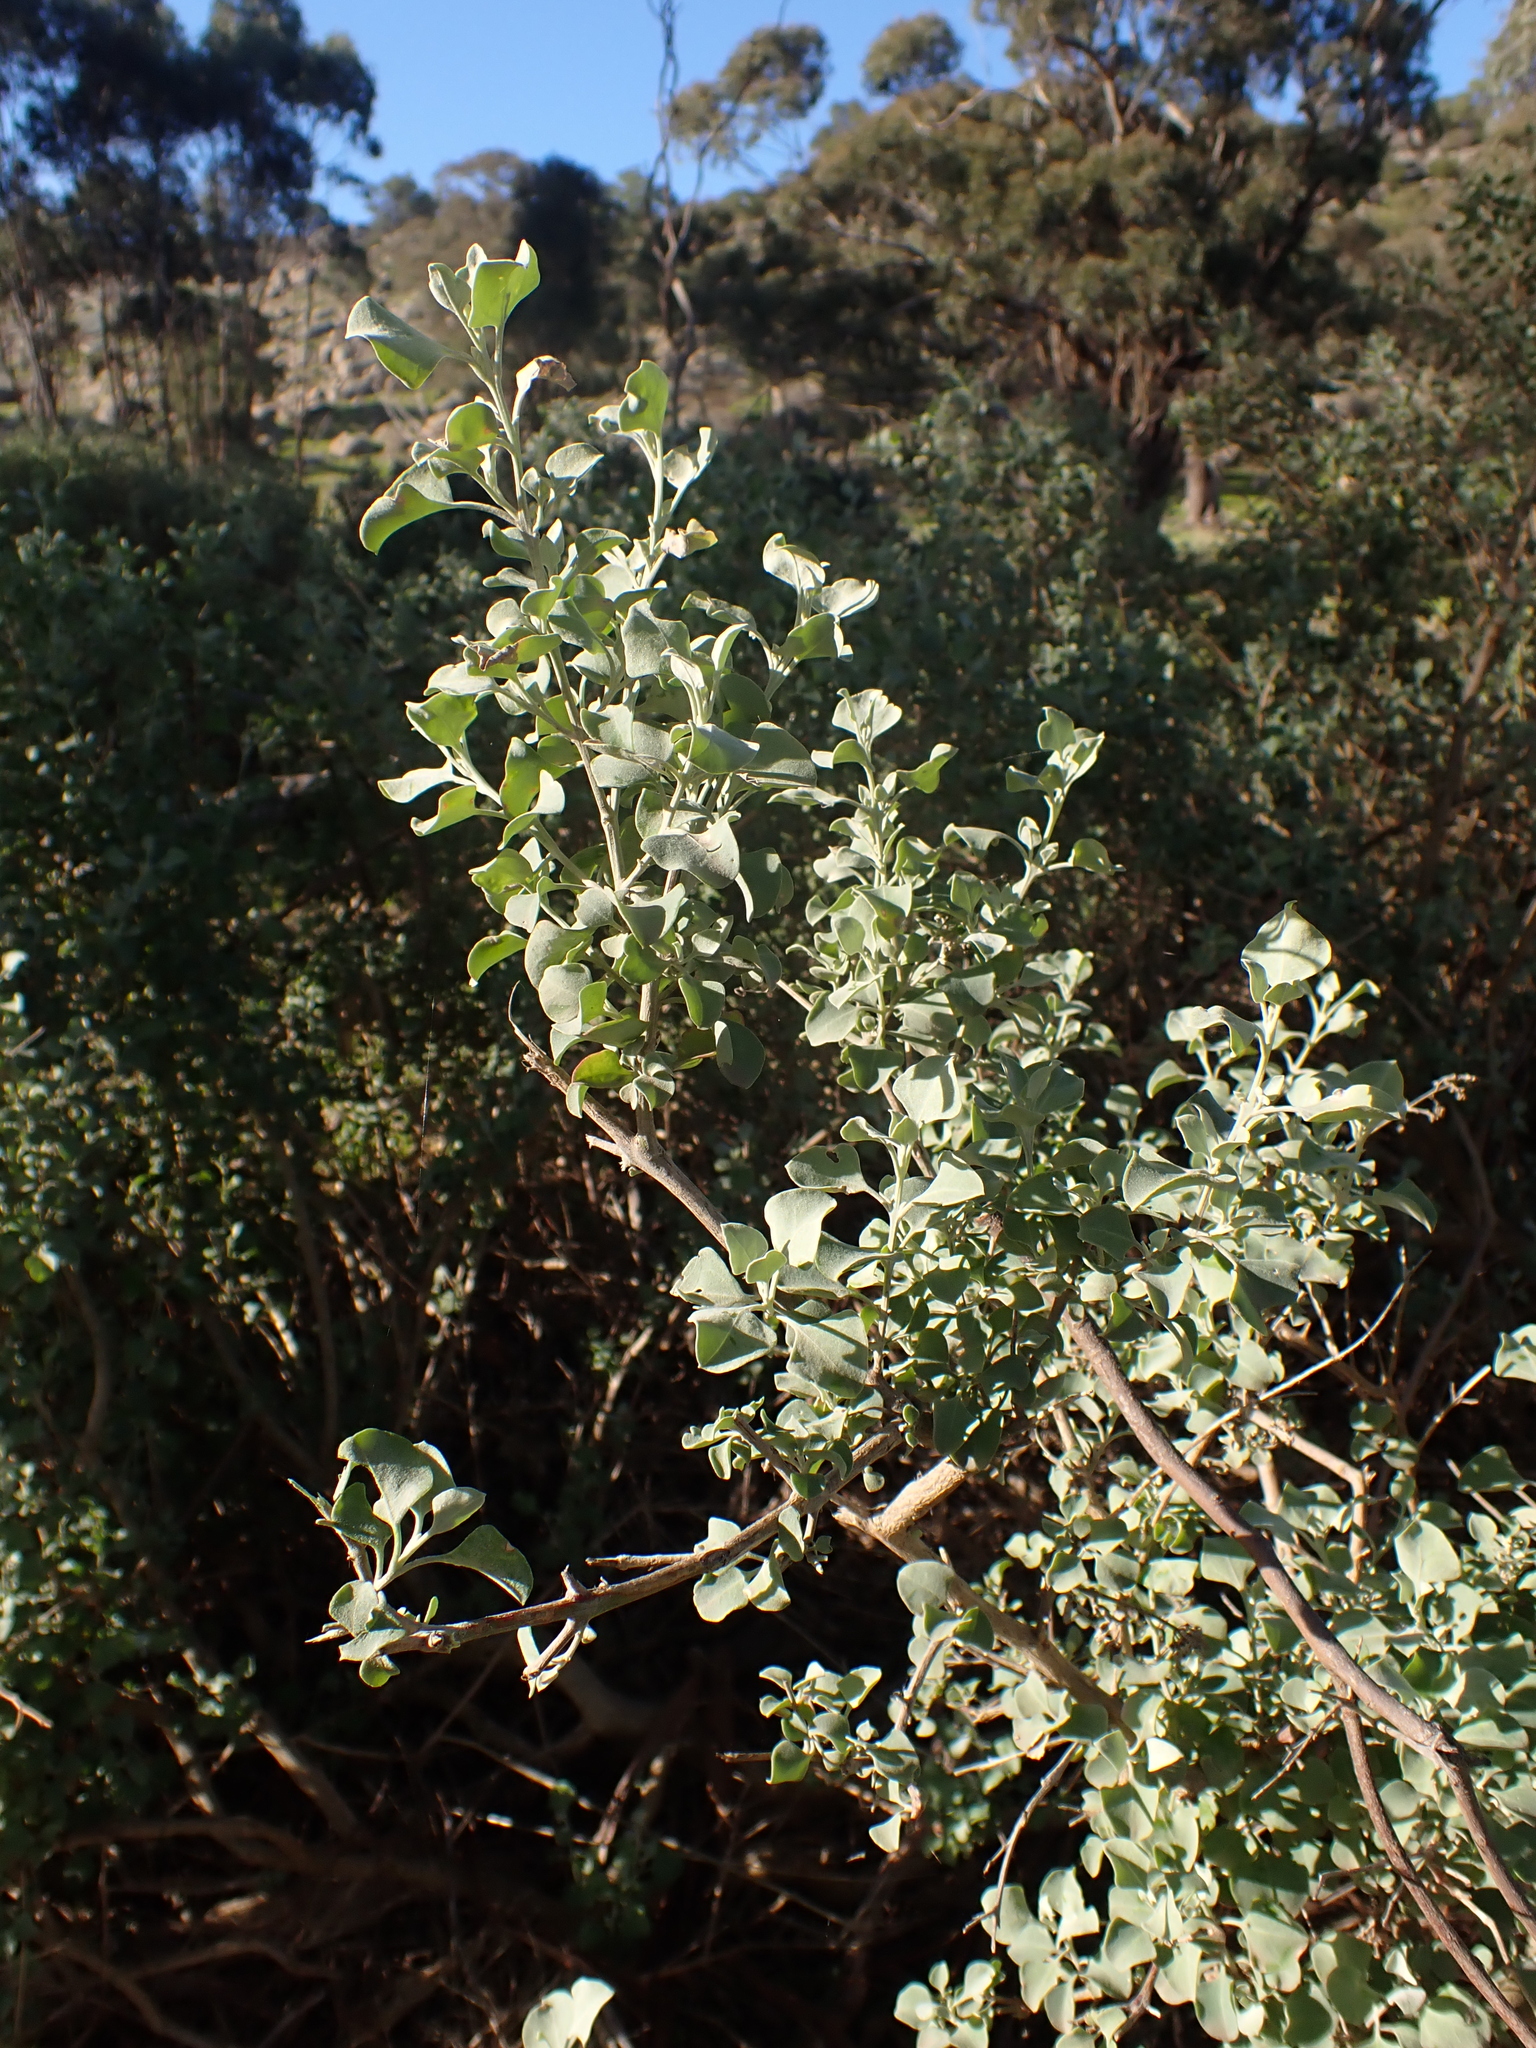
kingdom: Plantae
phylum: Tracheophyta
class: Magnoliopsida
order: Caryophyllales
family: Amaranthaceae
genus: Chenopodium
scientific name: Chenopodium parabolicum
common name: Old-man-saltbush
